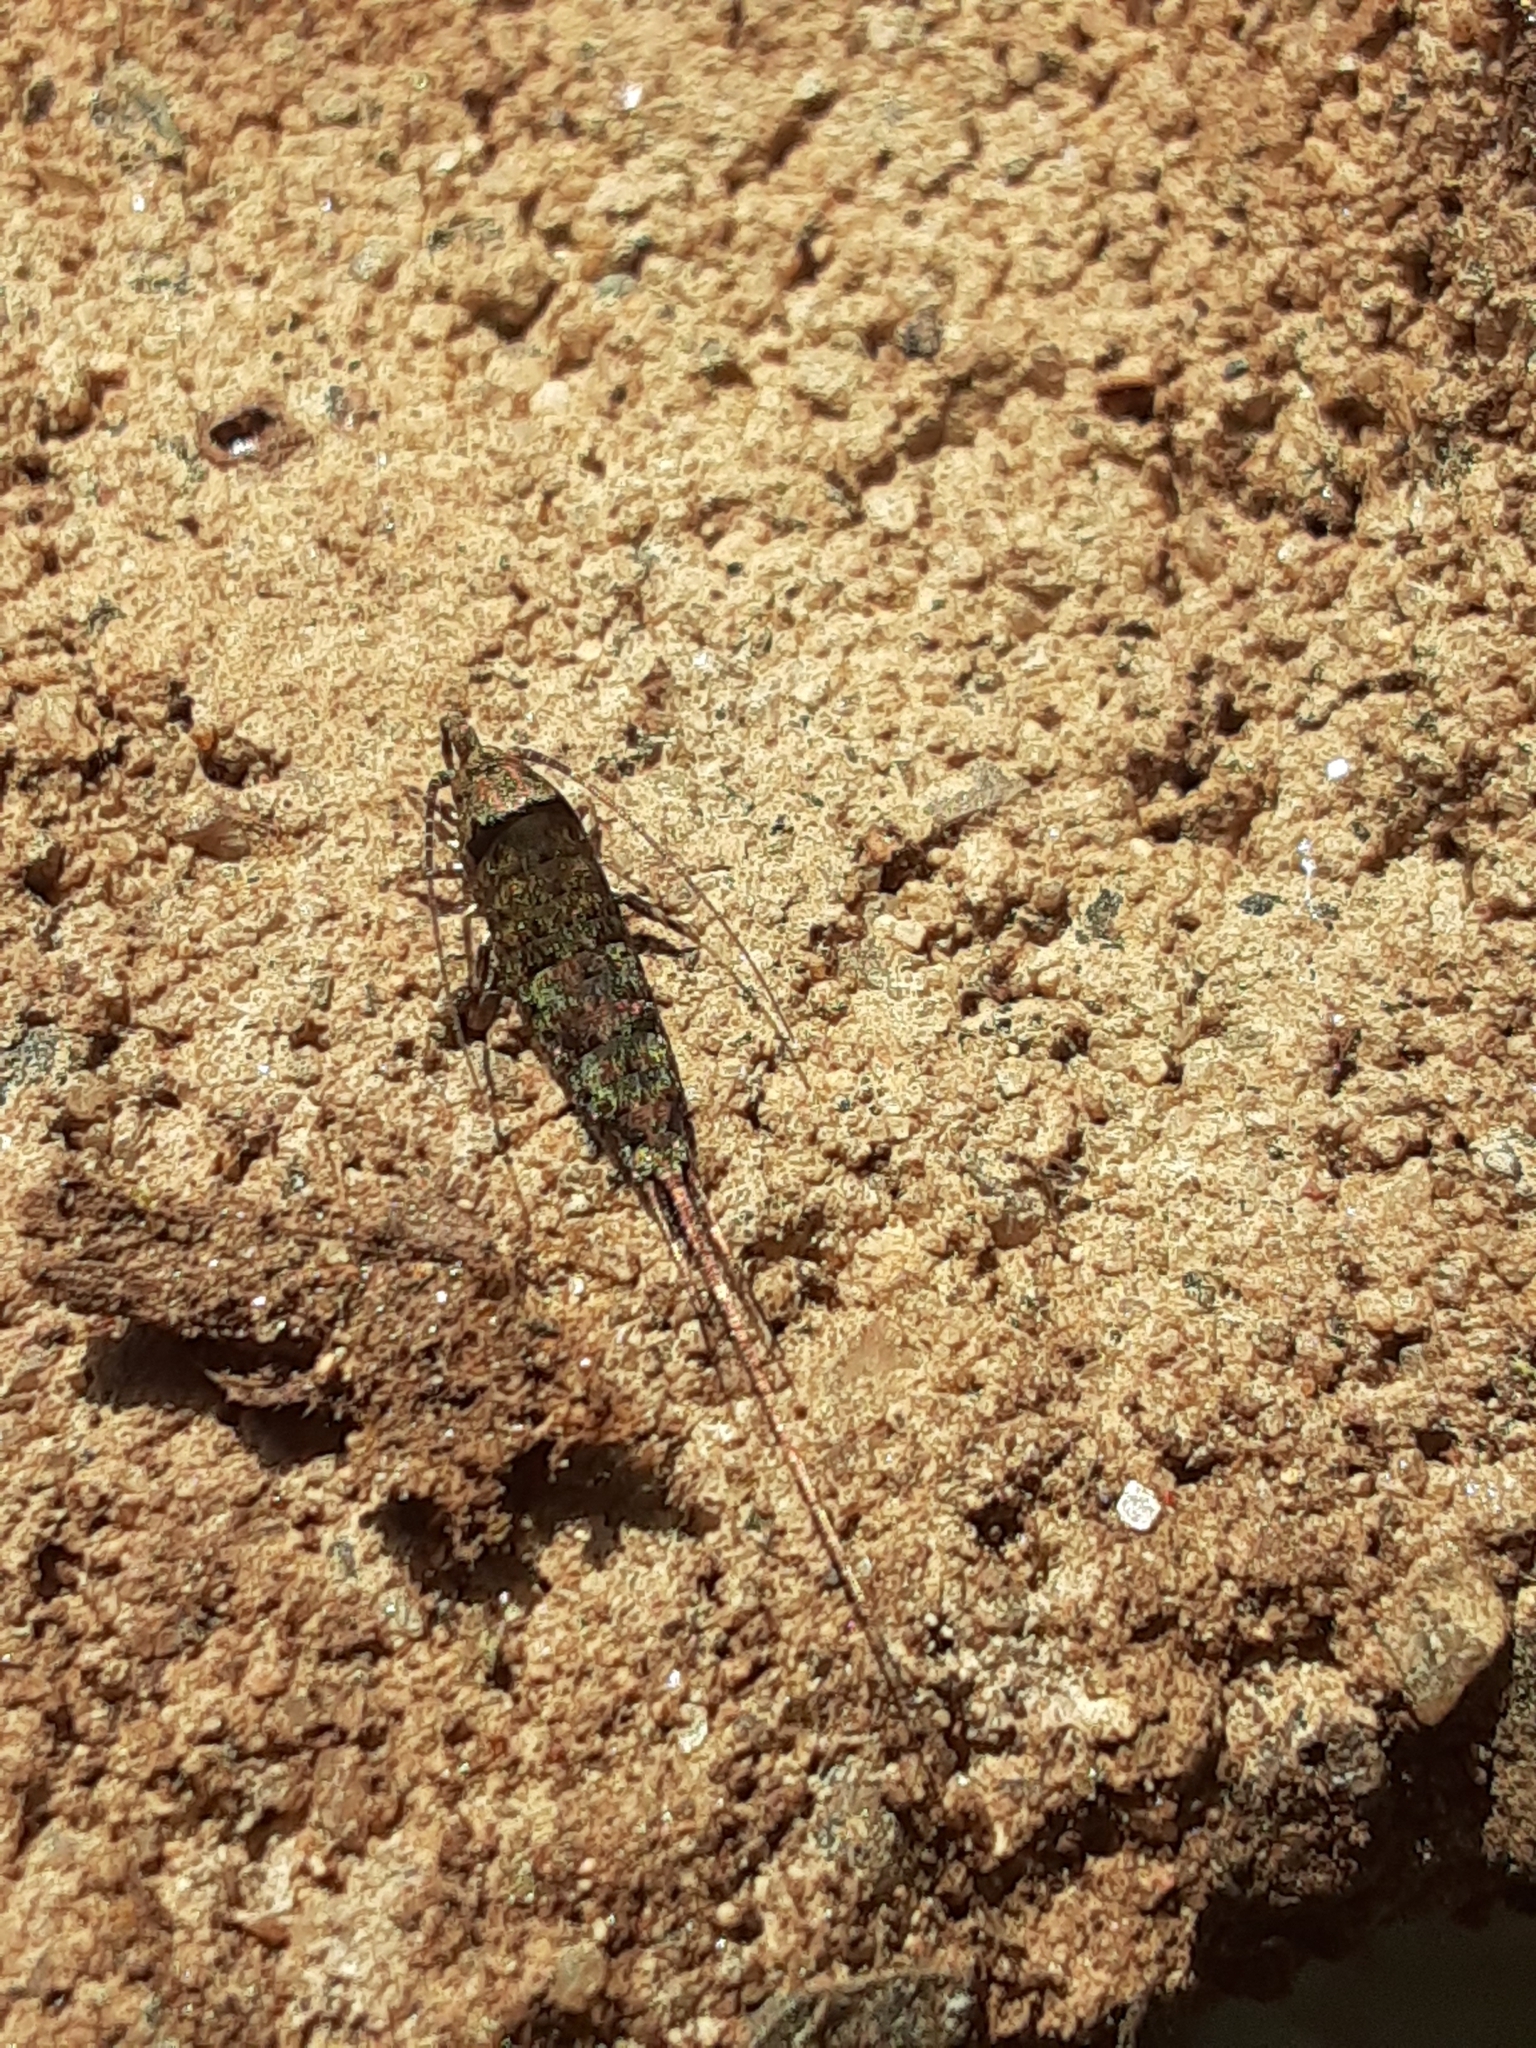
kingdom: Animalia
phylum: Arthropoda
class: Insecta
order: Archaeognatha
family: Machilidae
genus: Trigoniophthalmus
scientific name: Trigoniophthalmus alternatus
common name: Jumping bristletail
